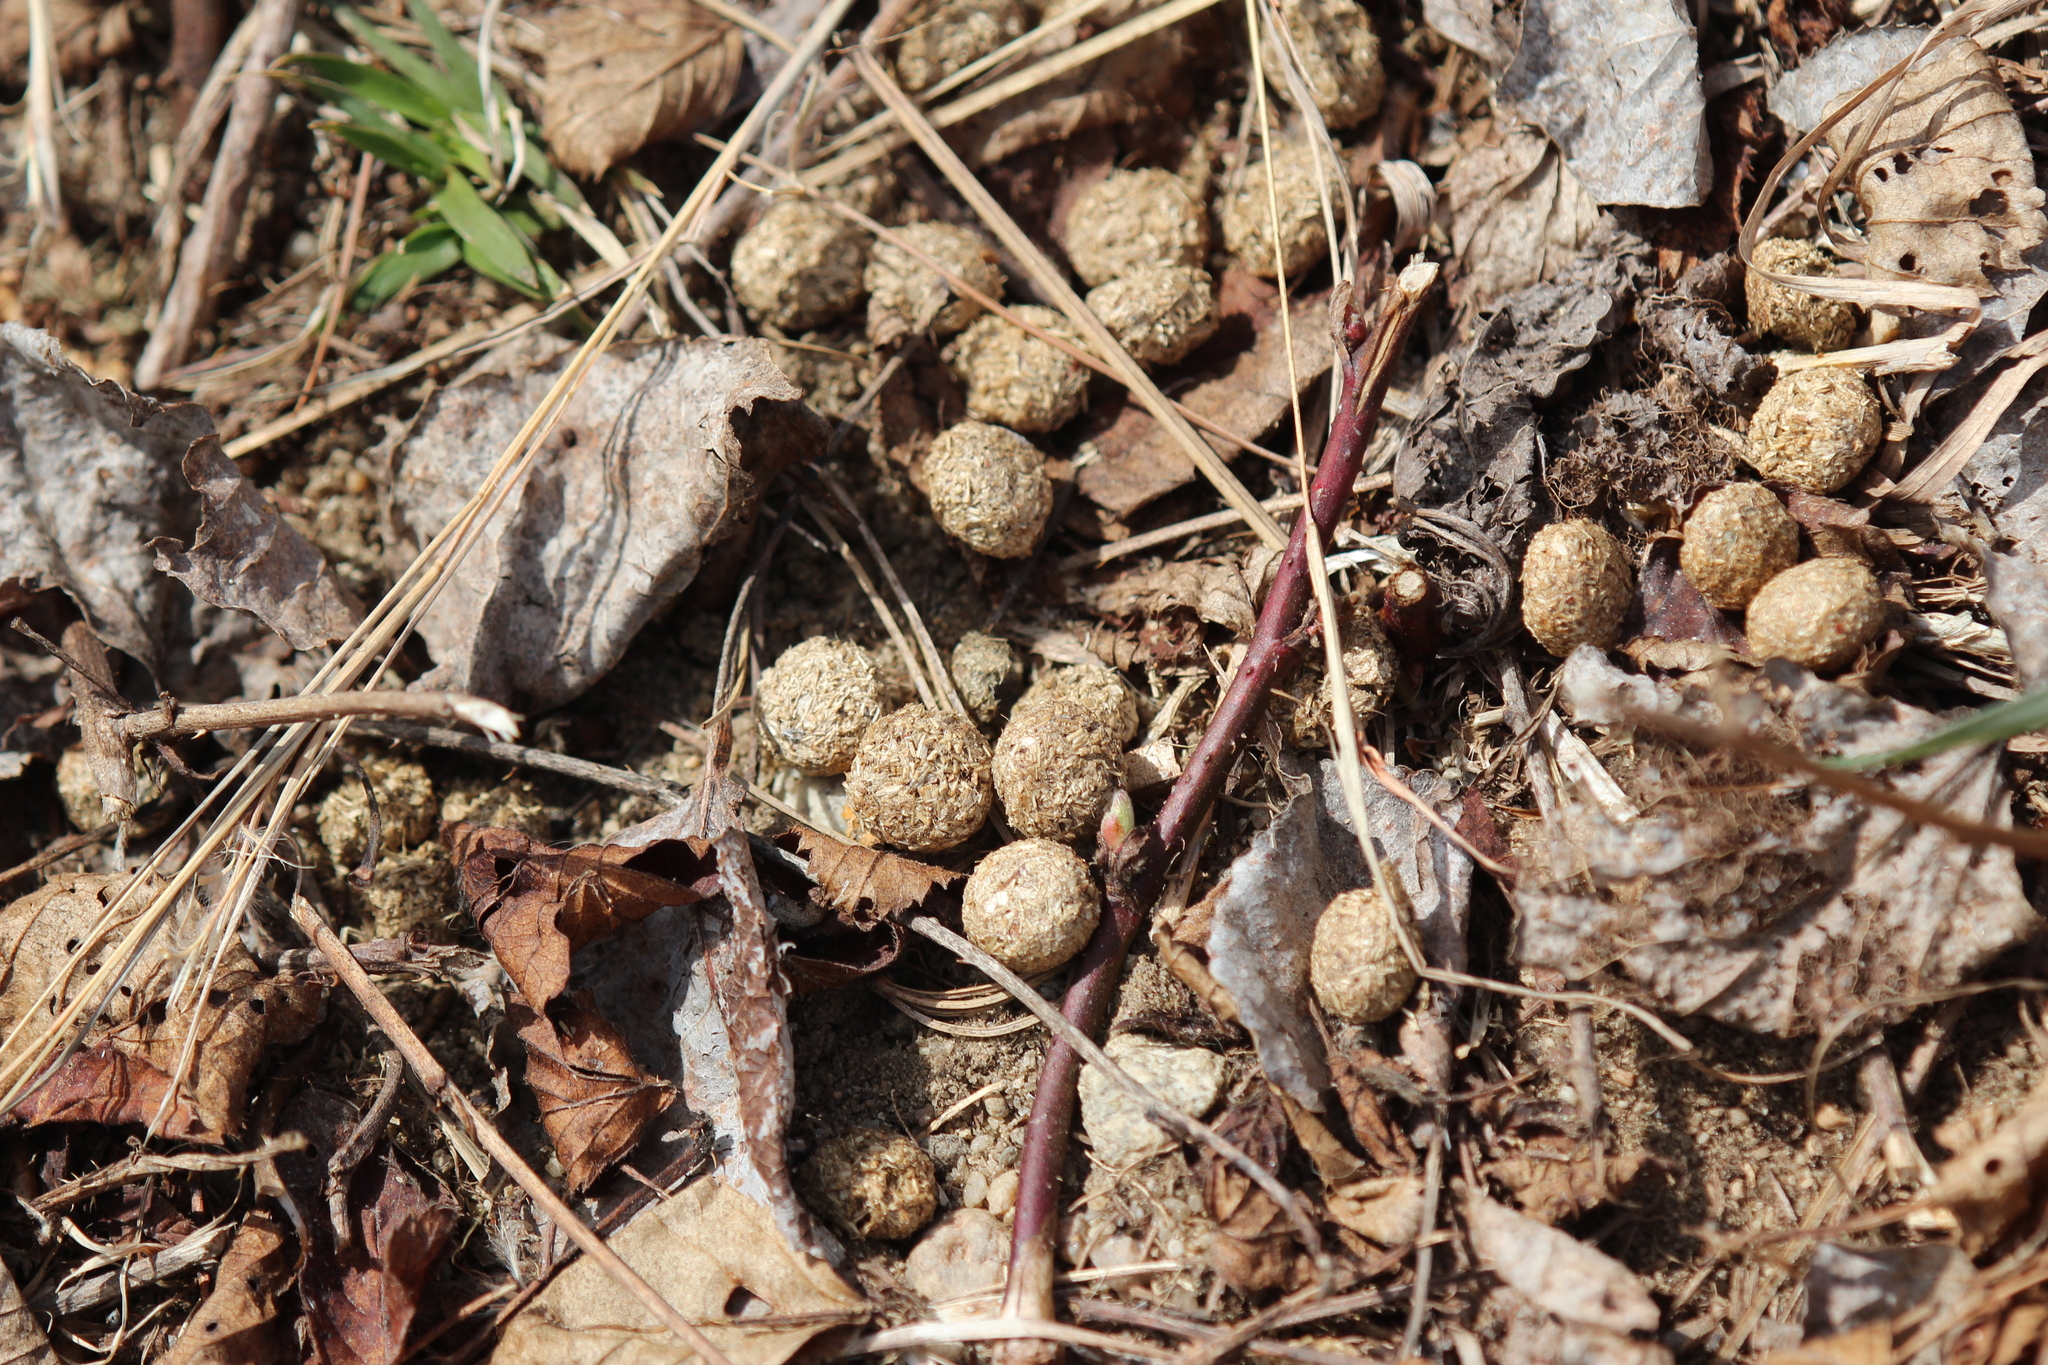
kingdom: Animalia
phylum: Chordata
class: Mammalia
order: Lagomorpha
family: Leporidae
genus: Sylvilagus
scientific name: Sylvilagus floridanus
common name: Eastern cottontail
